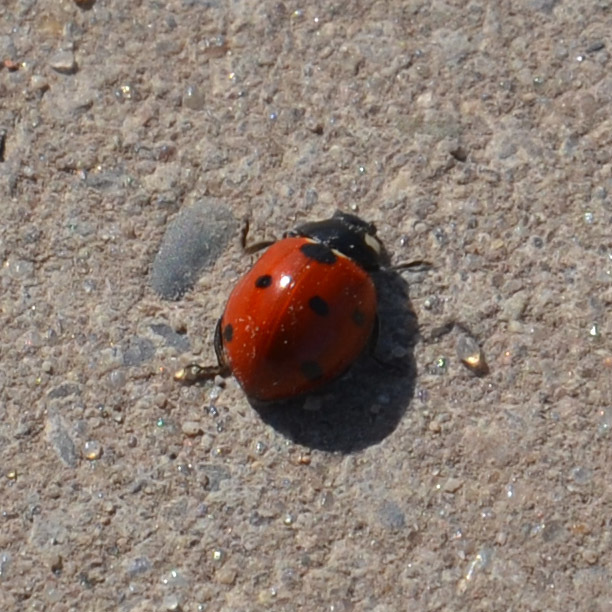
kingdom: Animalia
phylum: Arthropoda
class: Insecta
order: Coleoptera
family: Coccinellidae
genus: Coccinella
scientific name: Coccinella septempunctata
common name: Sevenspotted lady beetle
